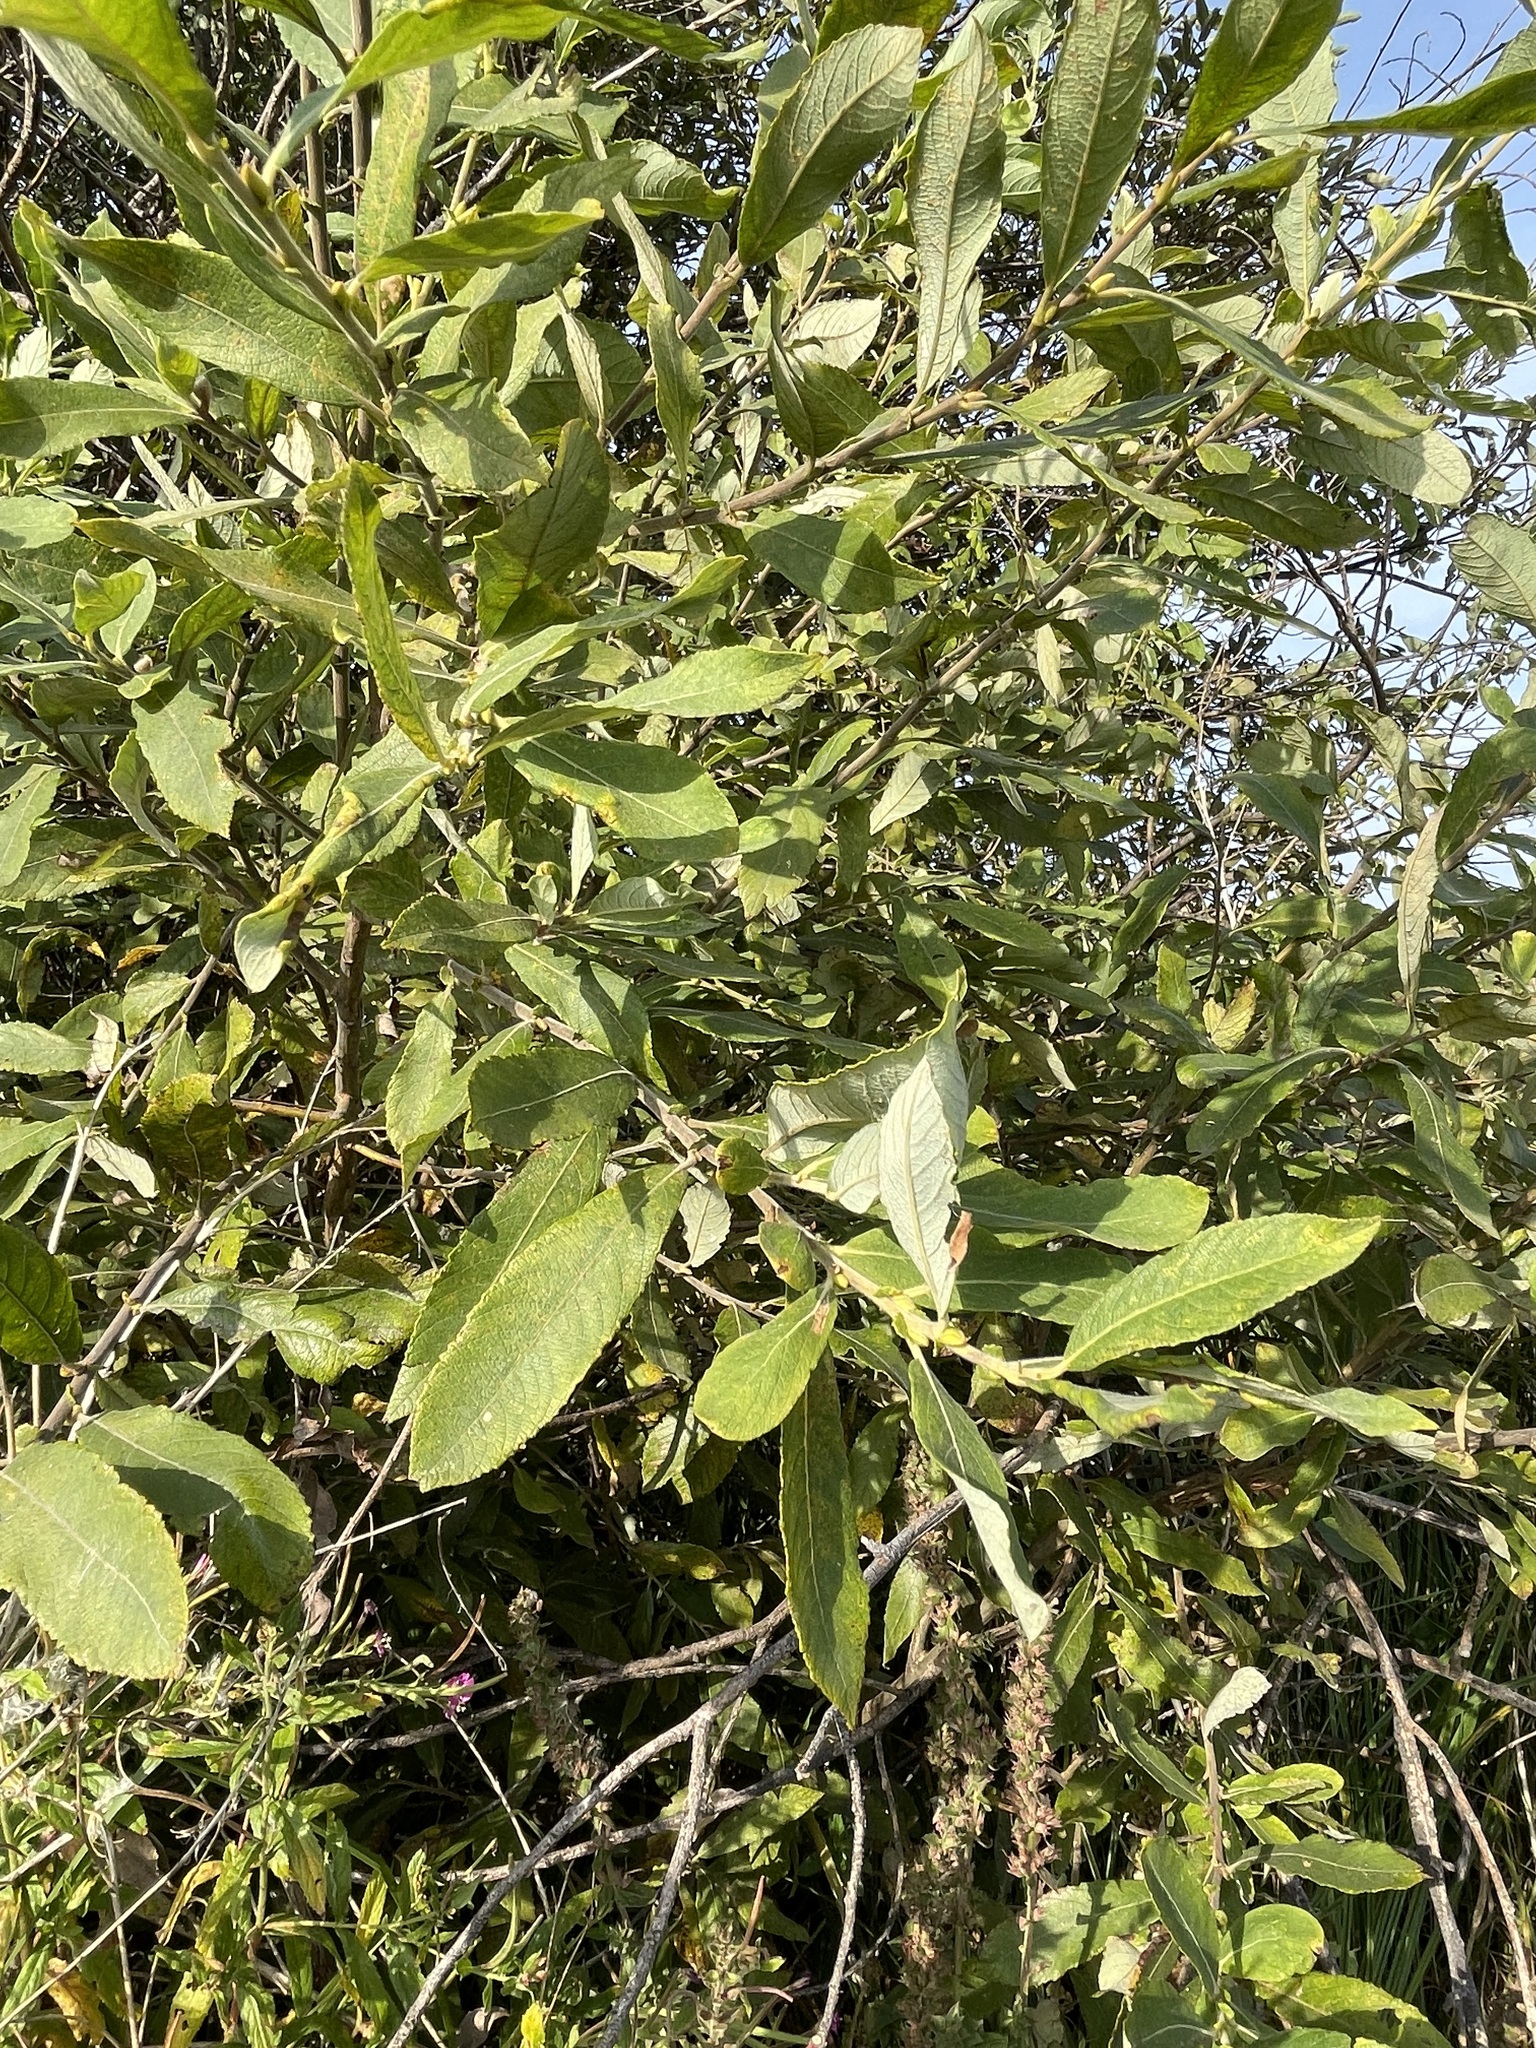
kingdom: Plantae
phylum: Tracheophyta
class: Magnoliopsida
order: Malpighiales
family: Salicaceae
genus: Salix
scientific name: Salix cinerea
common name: Common sallow
